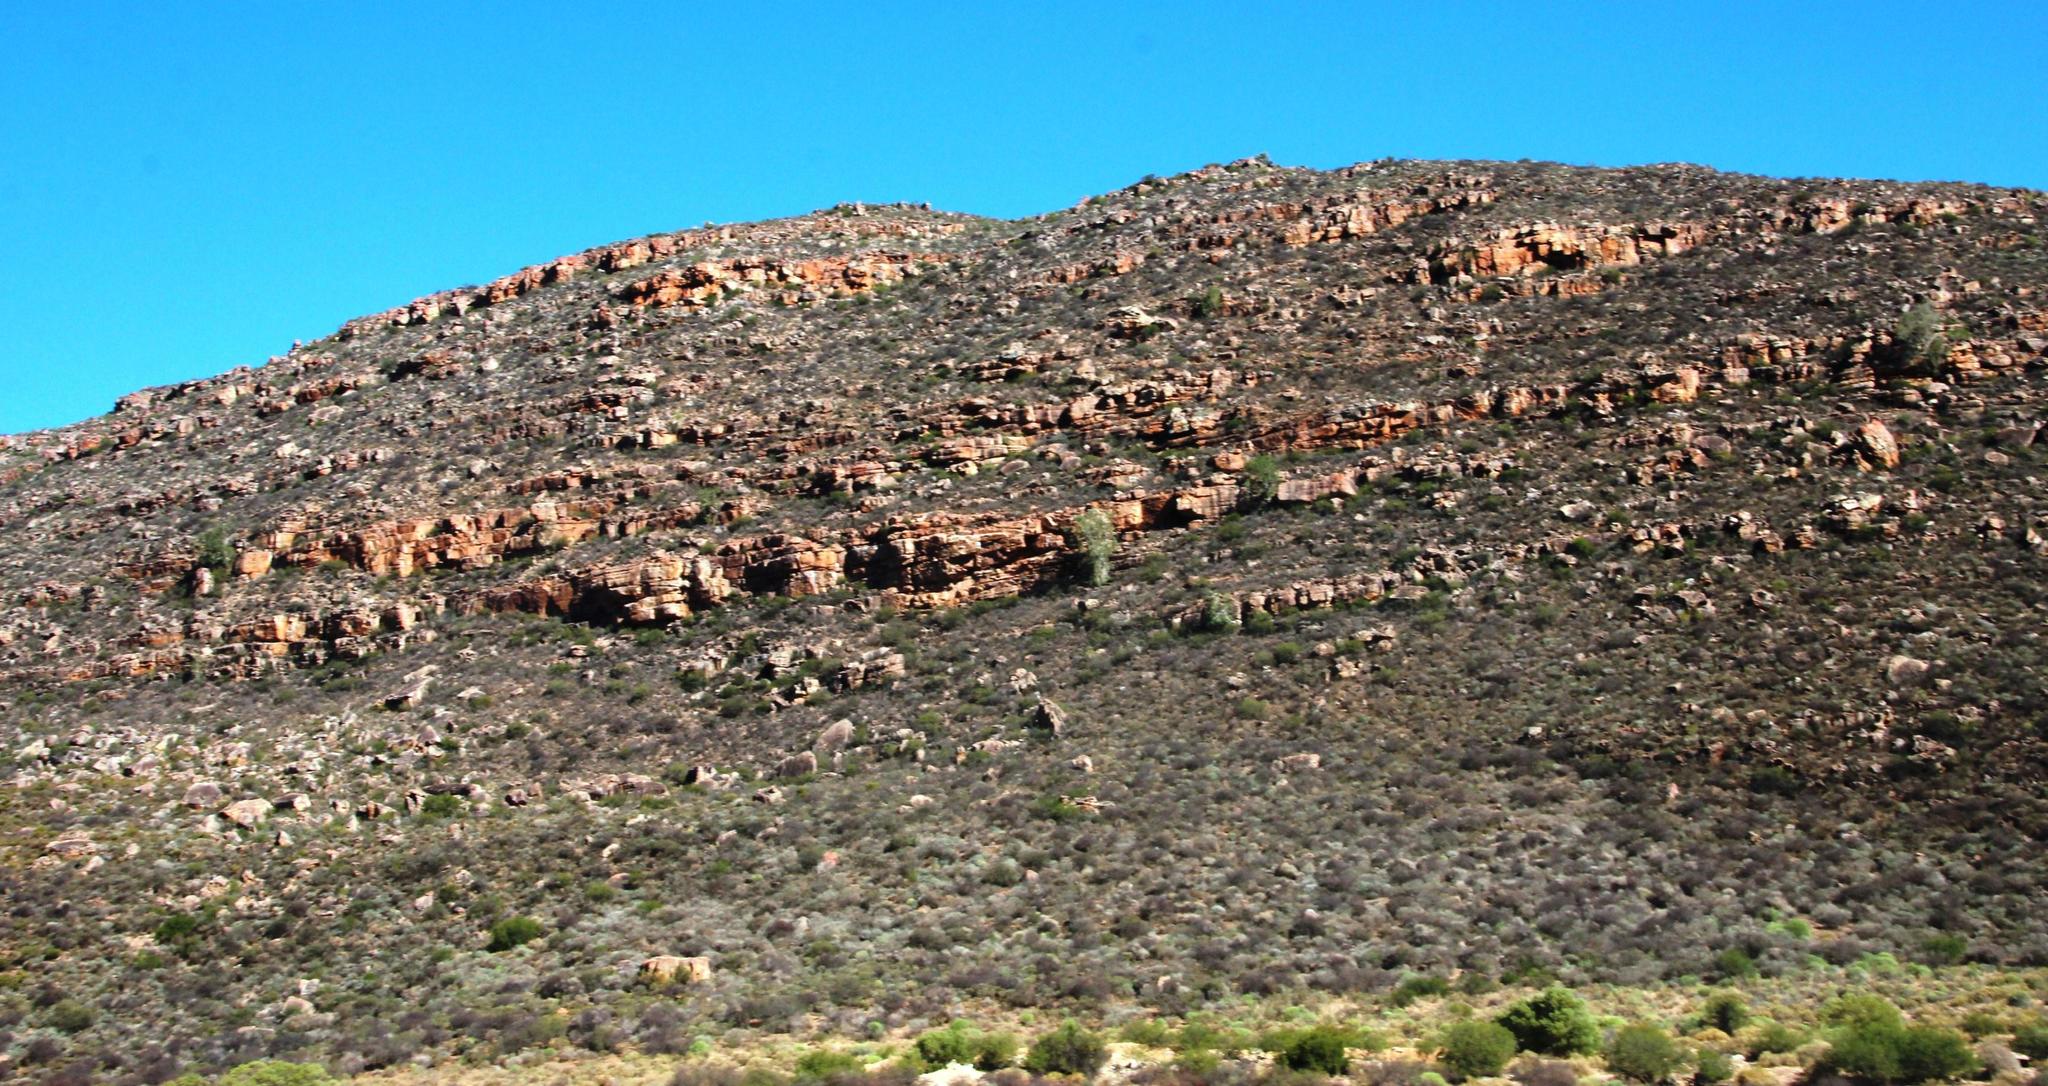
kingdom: Plantae
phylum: Tracheophyta
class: Magnoliopsida
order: Rosales
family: Moraceae
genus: Ficus
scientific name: Ficus cordata
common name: Namaqua rock fig
